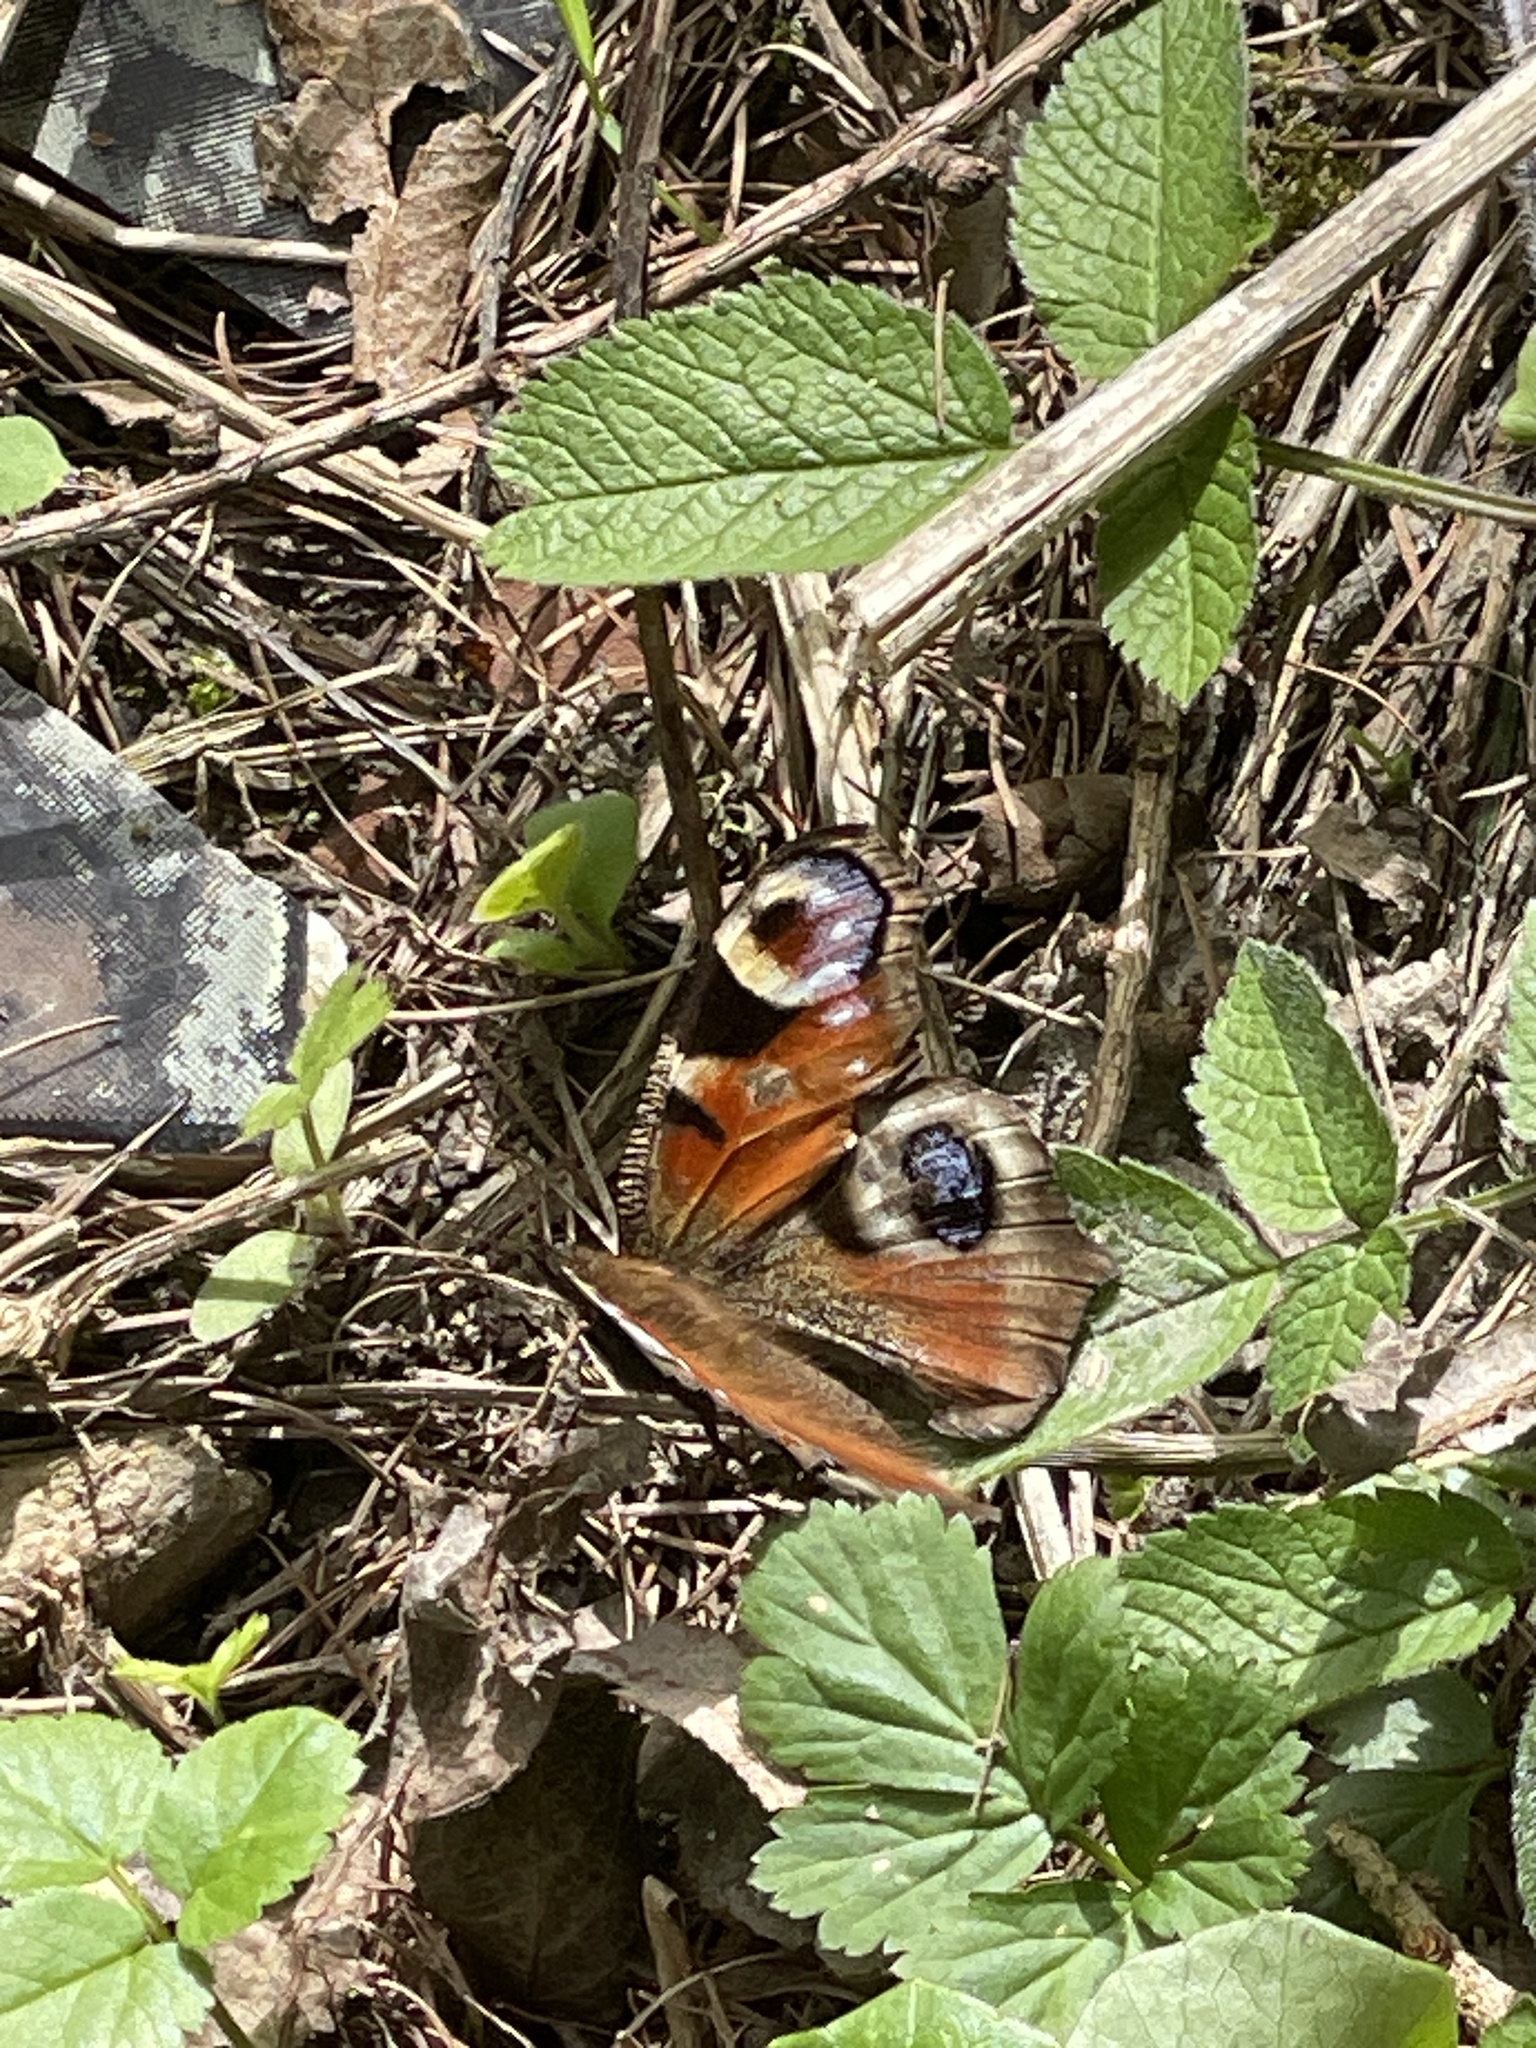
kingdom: Animalia
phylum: Arthropoda
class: Insecta
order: Lepidoptera
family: Nymphalidae
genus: Aglais
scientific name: Aglais io
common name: Peacock
